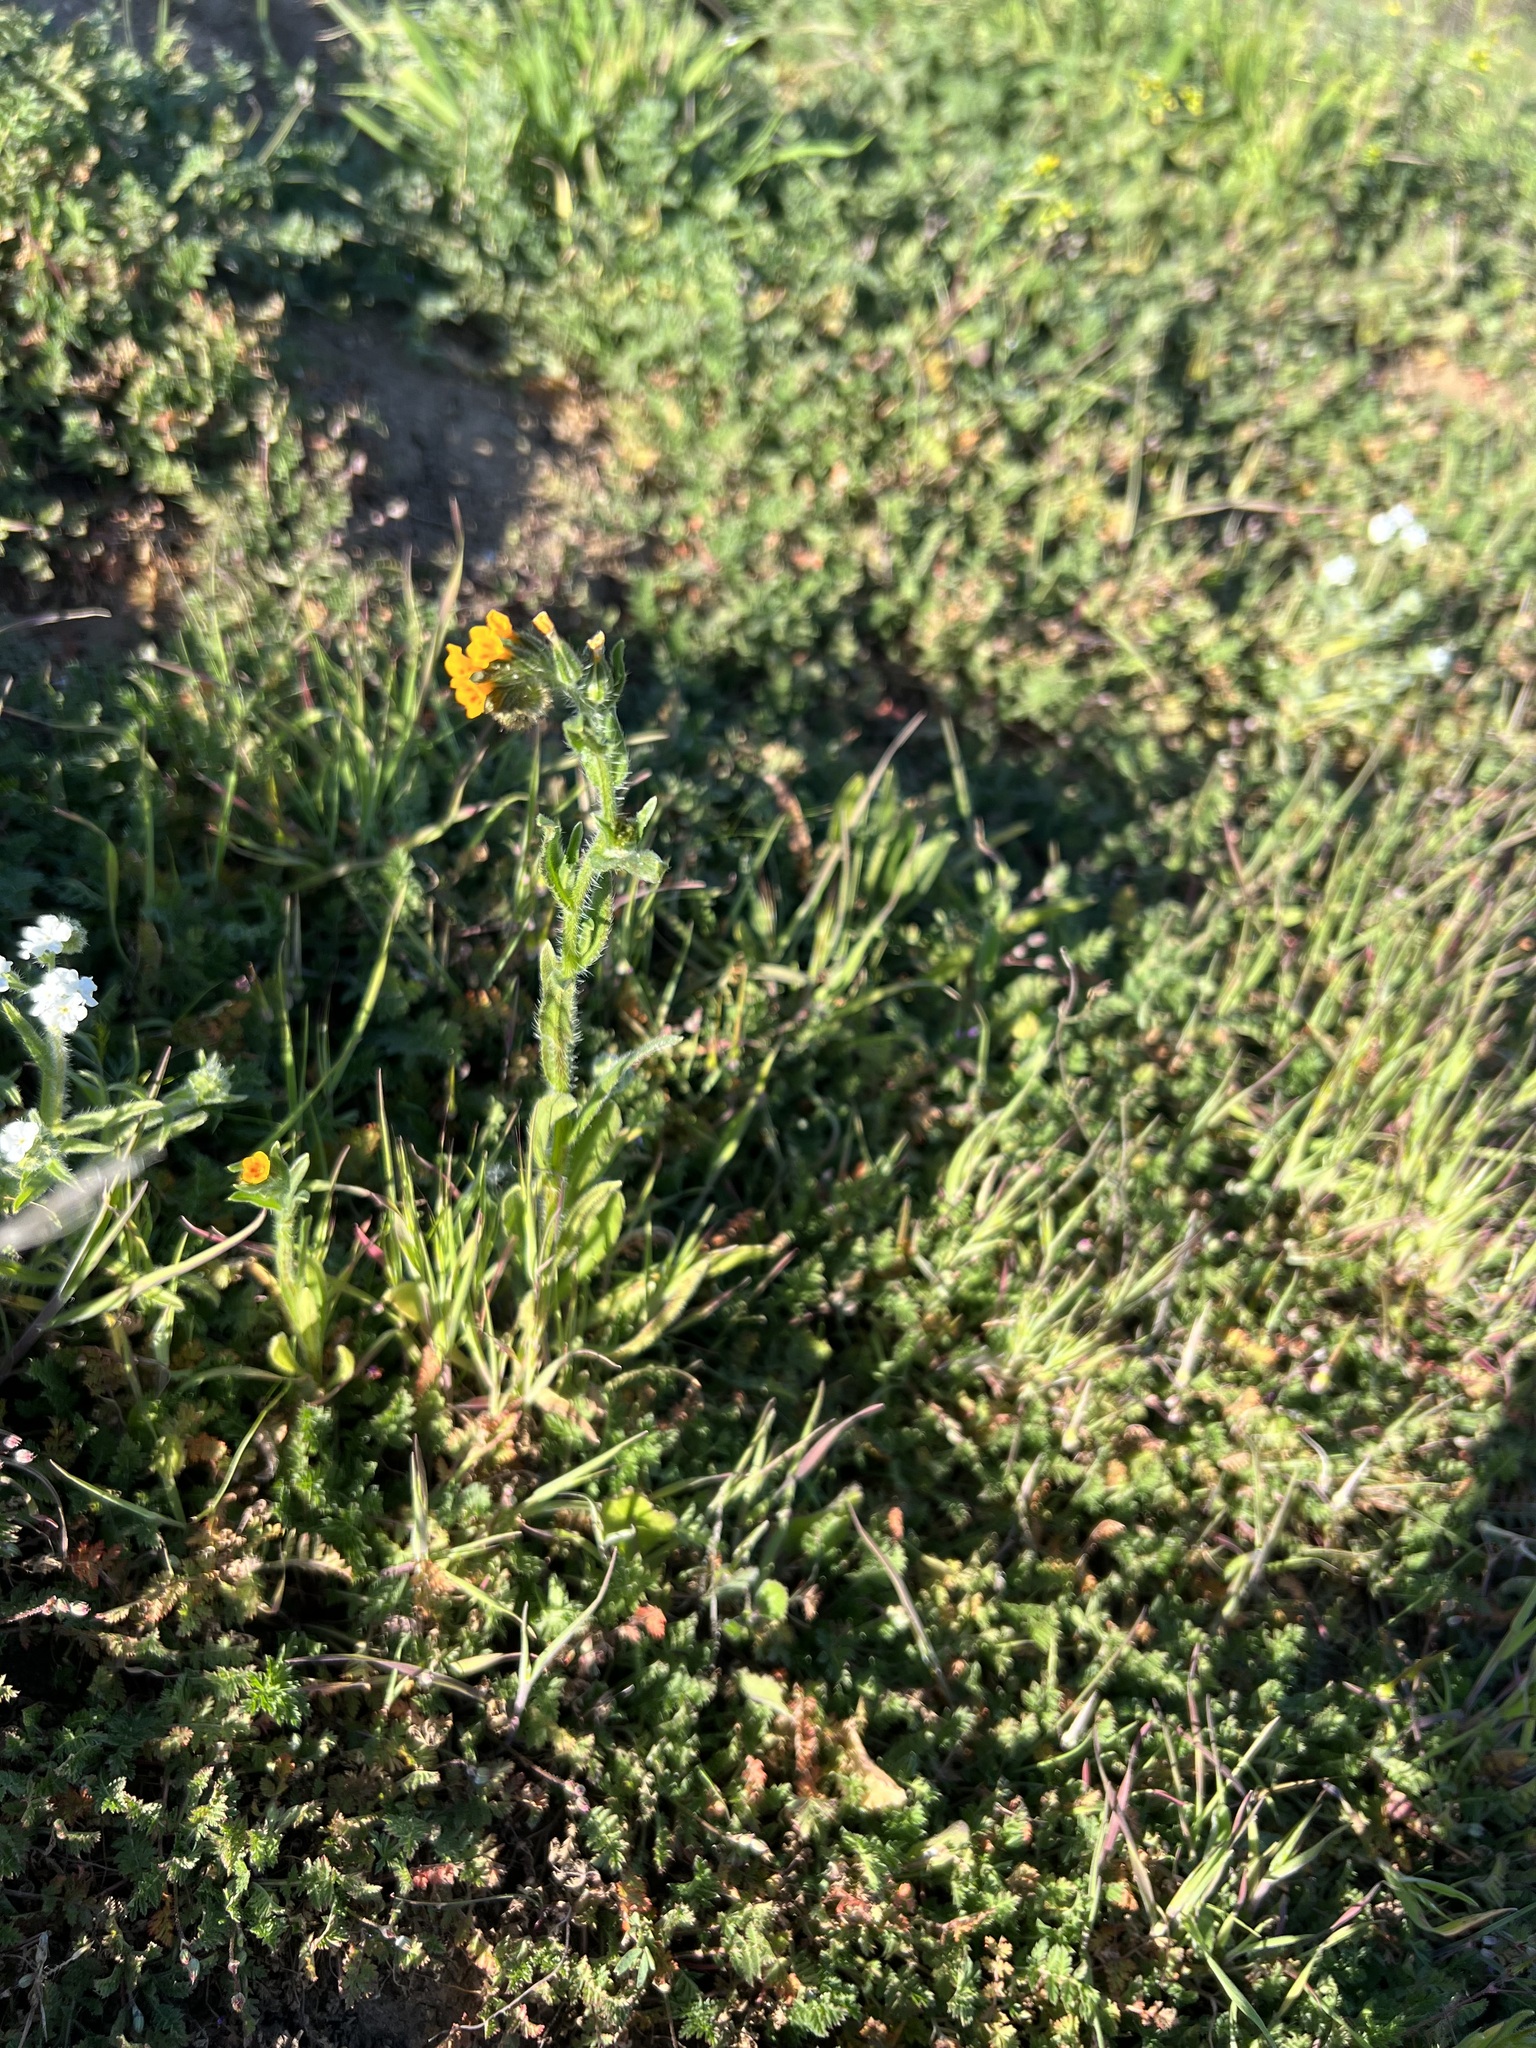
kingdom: Plantae
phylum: Tracheophyta
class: Magnoliopsida
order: Boraginales
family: Boraginaceae
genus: Amsinckia
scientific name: Amsinckia menziesii
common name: Menzies' fiddleneck
